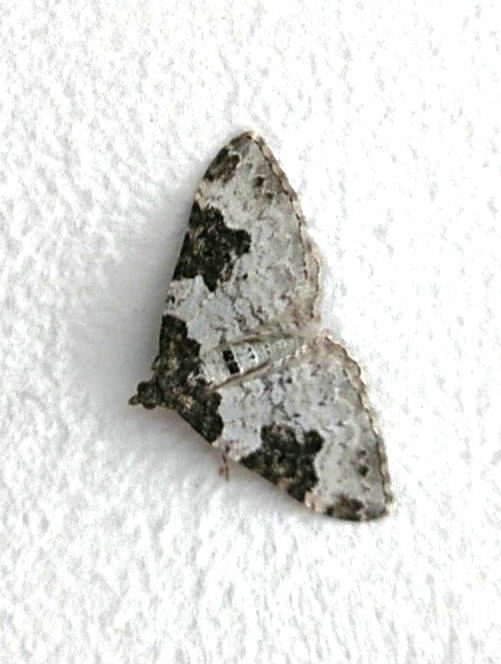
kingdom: Animalia
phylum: Arthropoda
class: Insecta
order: Lepidoptera
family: Geometridae
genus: Xanthorhoe
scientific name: Xanthorhoe fluctuata
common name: Garden carpet
